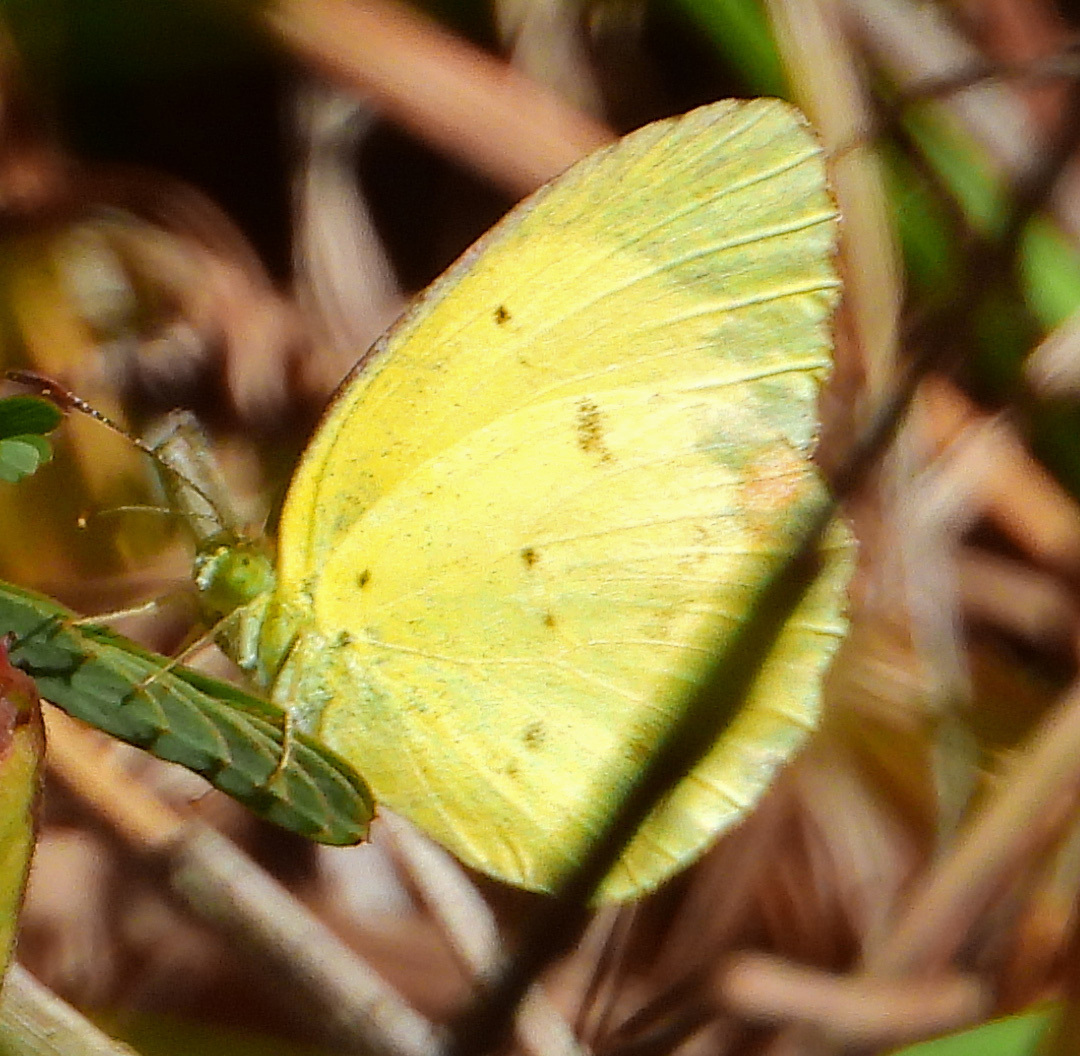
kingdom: Animalia
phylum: Arthropoda
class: Insecta
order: Lepidoptera
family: Pieridae
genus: Pyrisitia
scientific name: Pyrisitia lisa
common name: Little yellow
